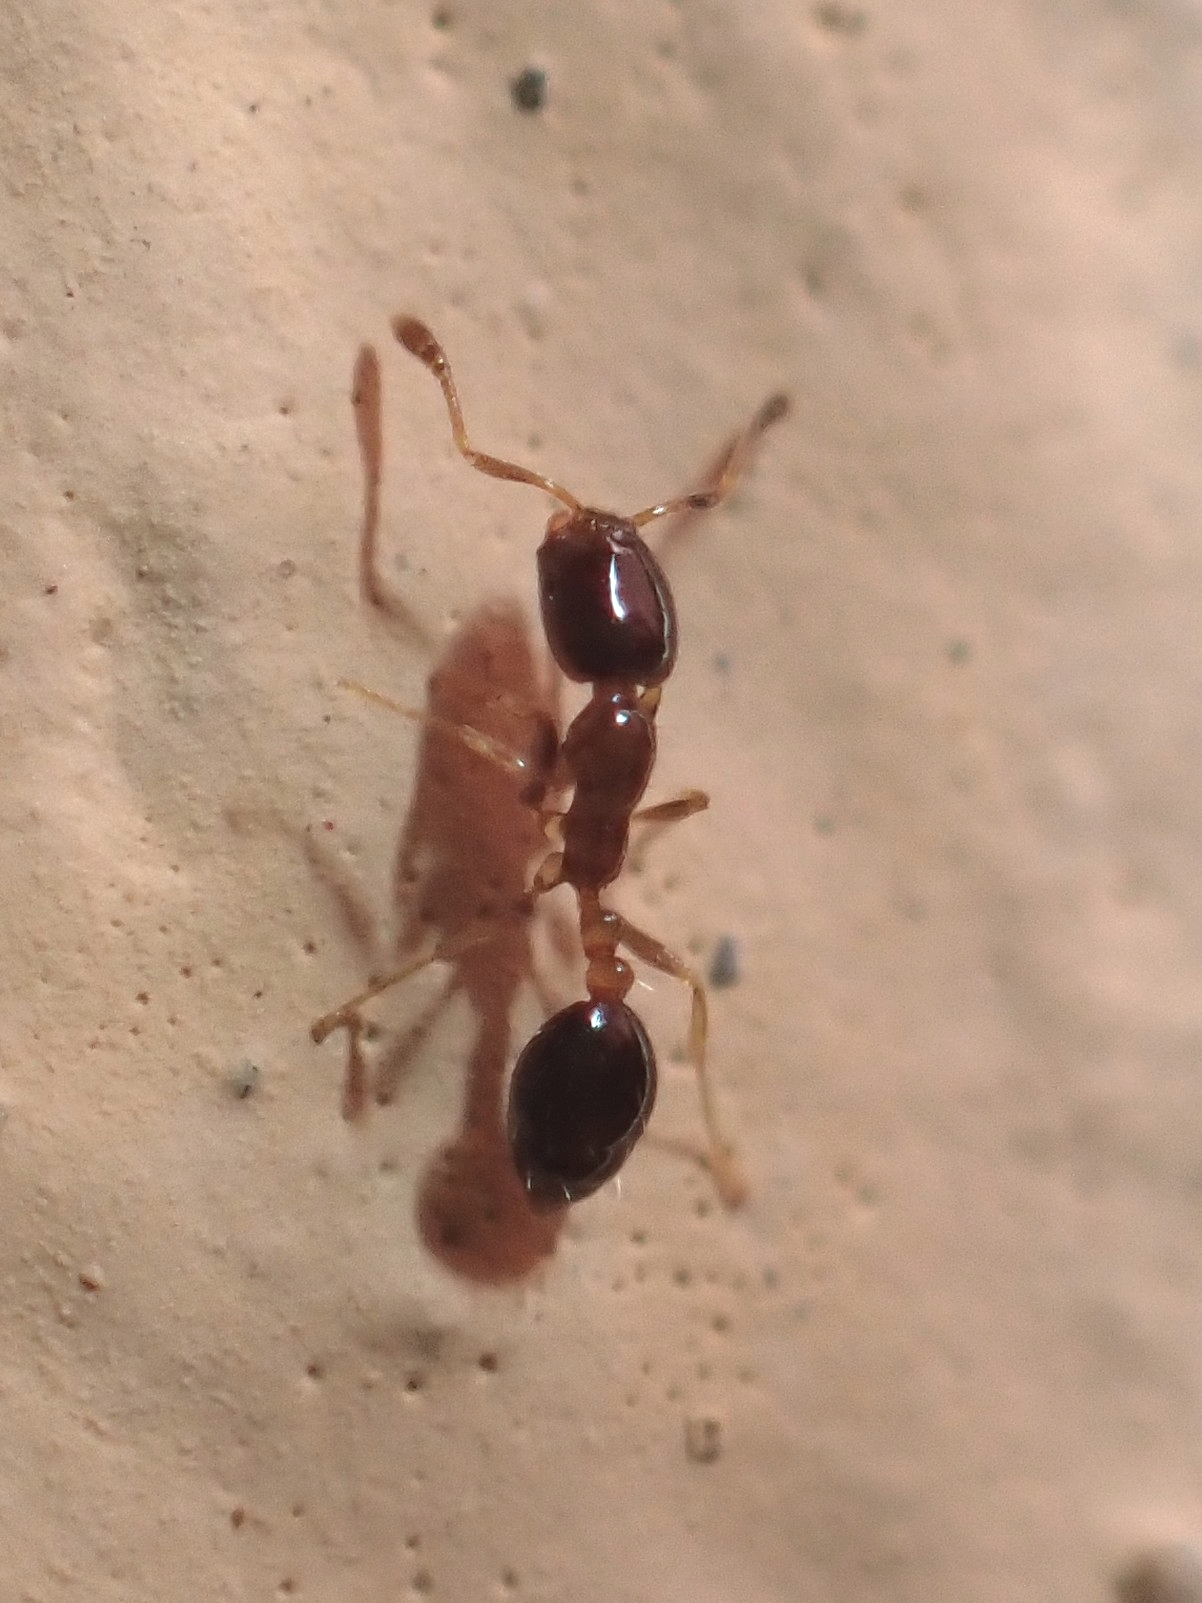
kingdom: Animalia
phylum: Arthropoda
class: Insecta
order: Hymenoptera
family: Formicidae
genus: Monomorium
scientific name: Monomorium floricola
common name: Bicolored trailing ant
